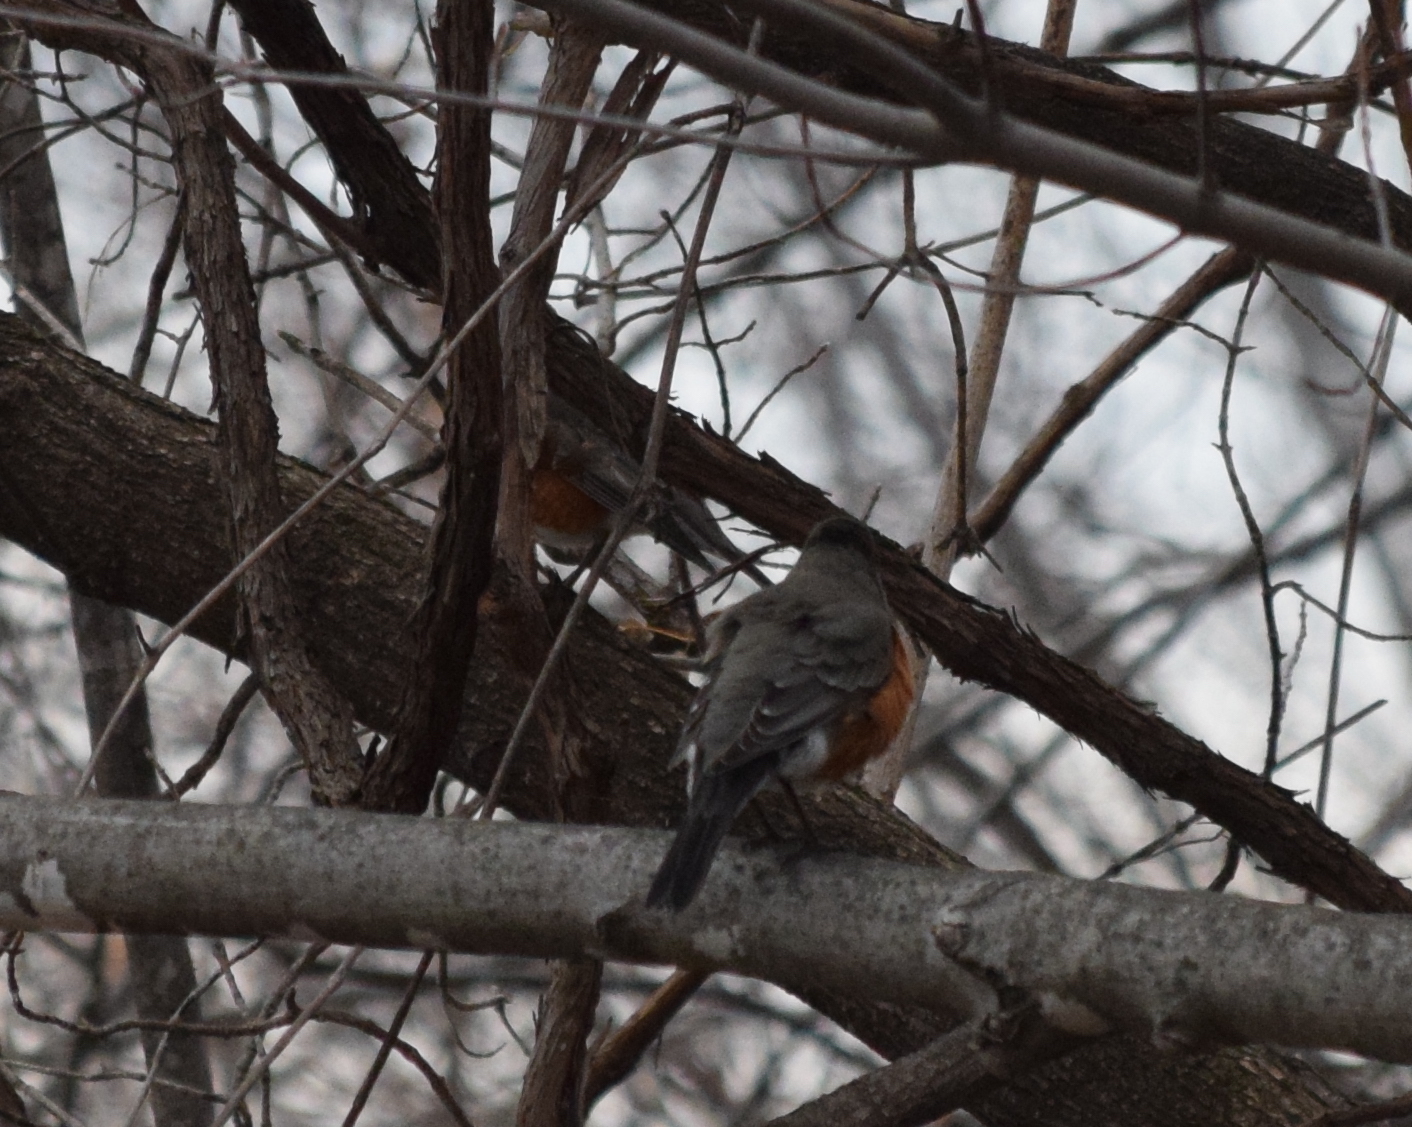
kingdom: Animalia
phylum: Chordata
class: Aves
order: Passeriformes
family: Turdidae
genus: Turdus
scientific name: Turdus migratorius
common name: American robin
